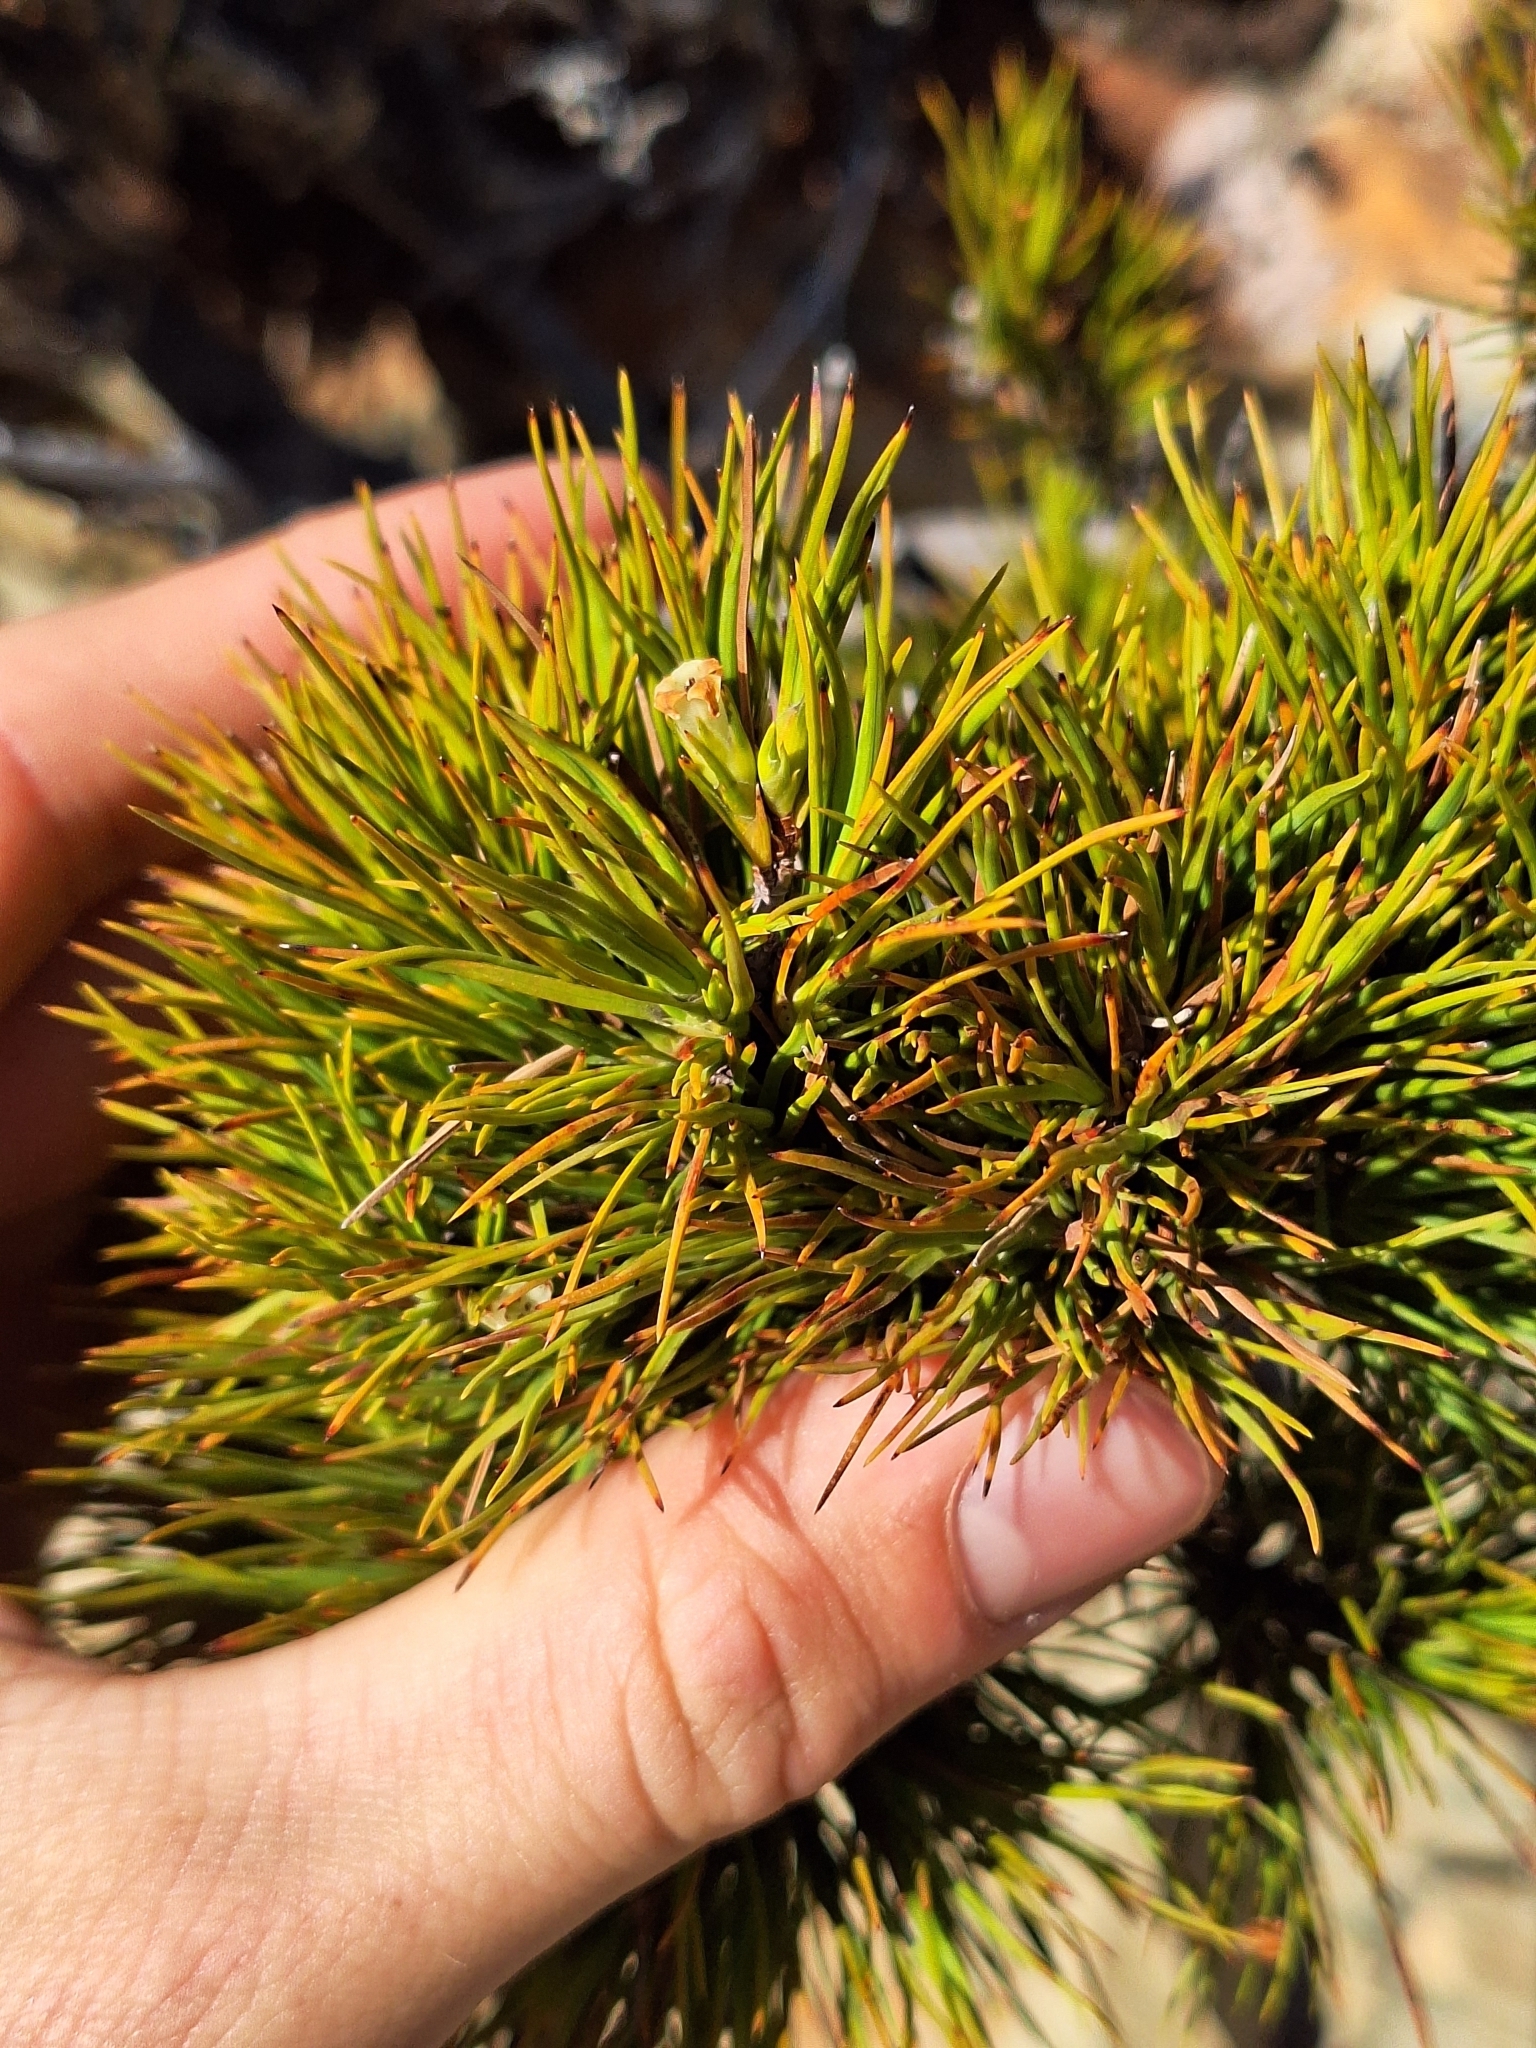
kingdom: Plantae
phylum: Tracheophyta
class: Magnoliopsida
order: Ericales
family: Ericaceae
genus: Dracophyllum
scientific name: Dracophyllum rosmarinifolium
